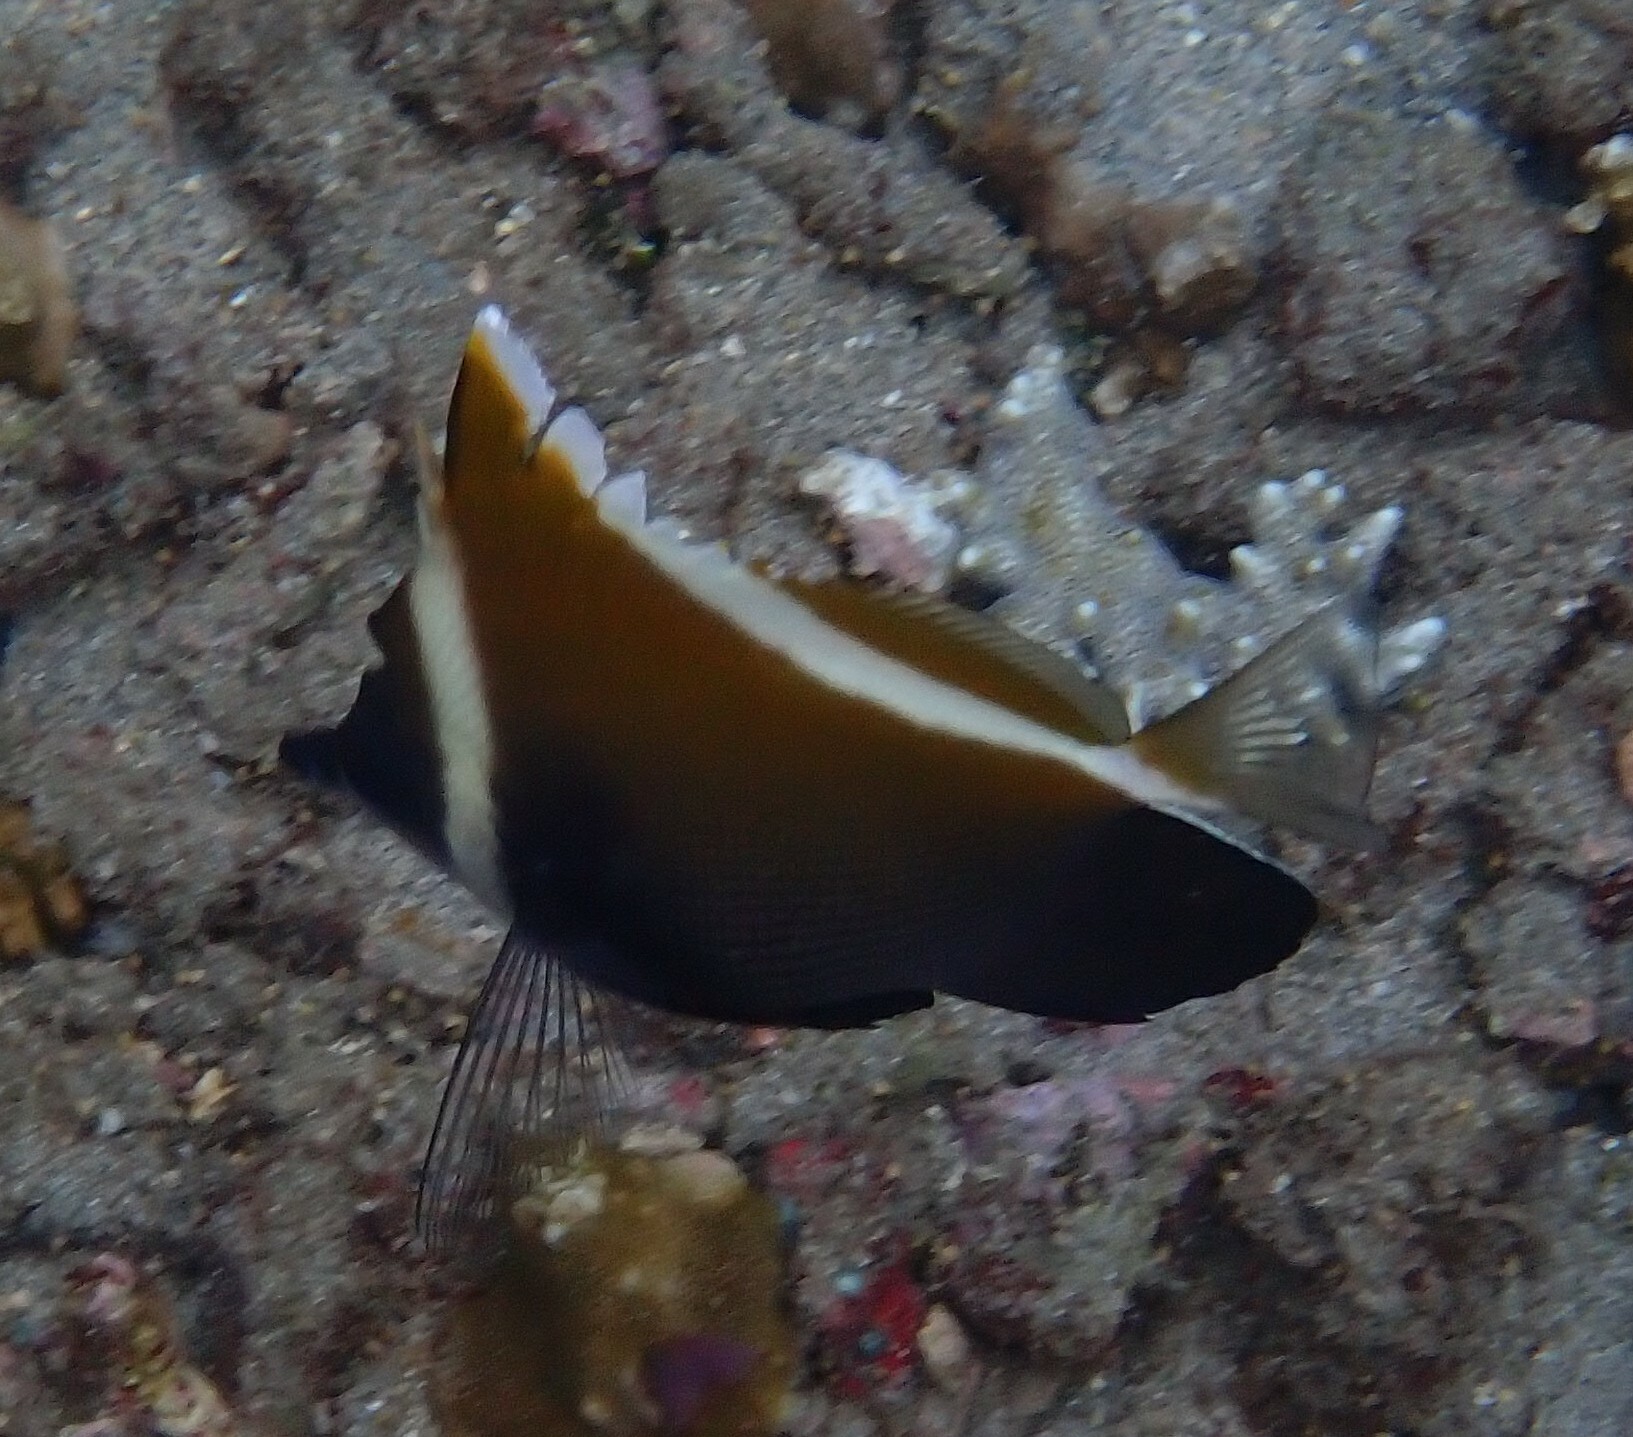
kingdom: Animalia
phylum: Chordata
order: Perciformes
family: Chaetodontidae
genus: Heniochus
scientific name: Heniochus varius
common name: Horned bannerfish
